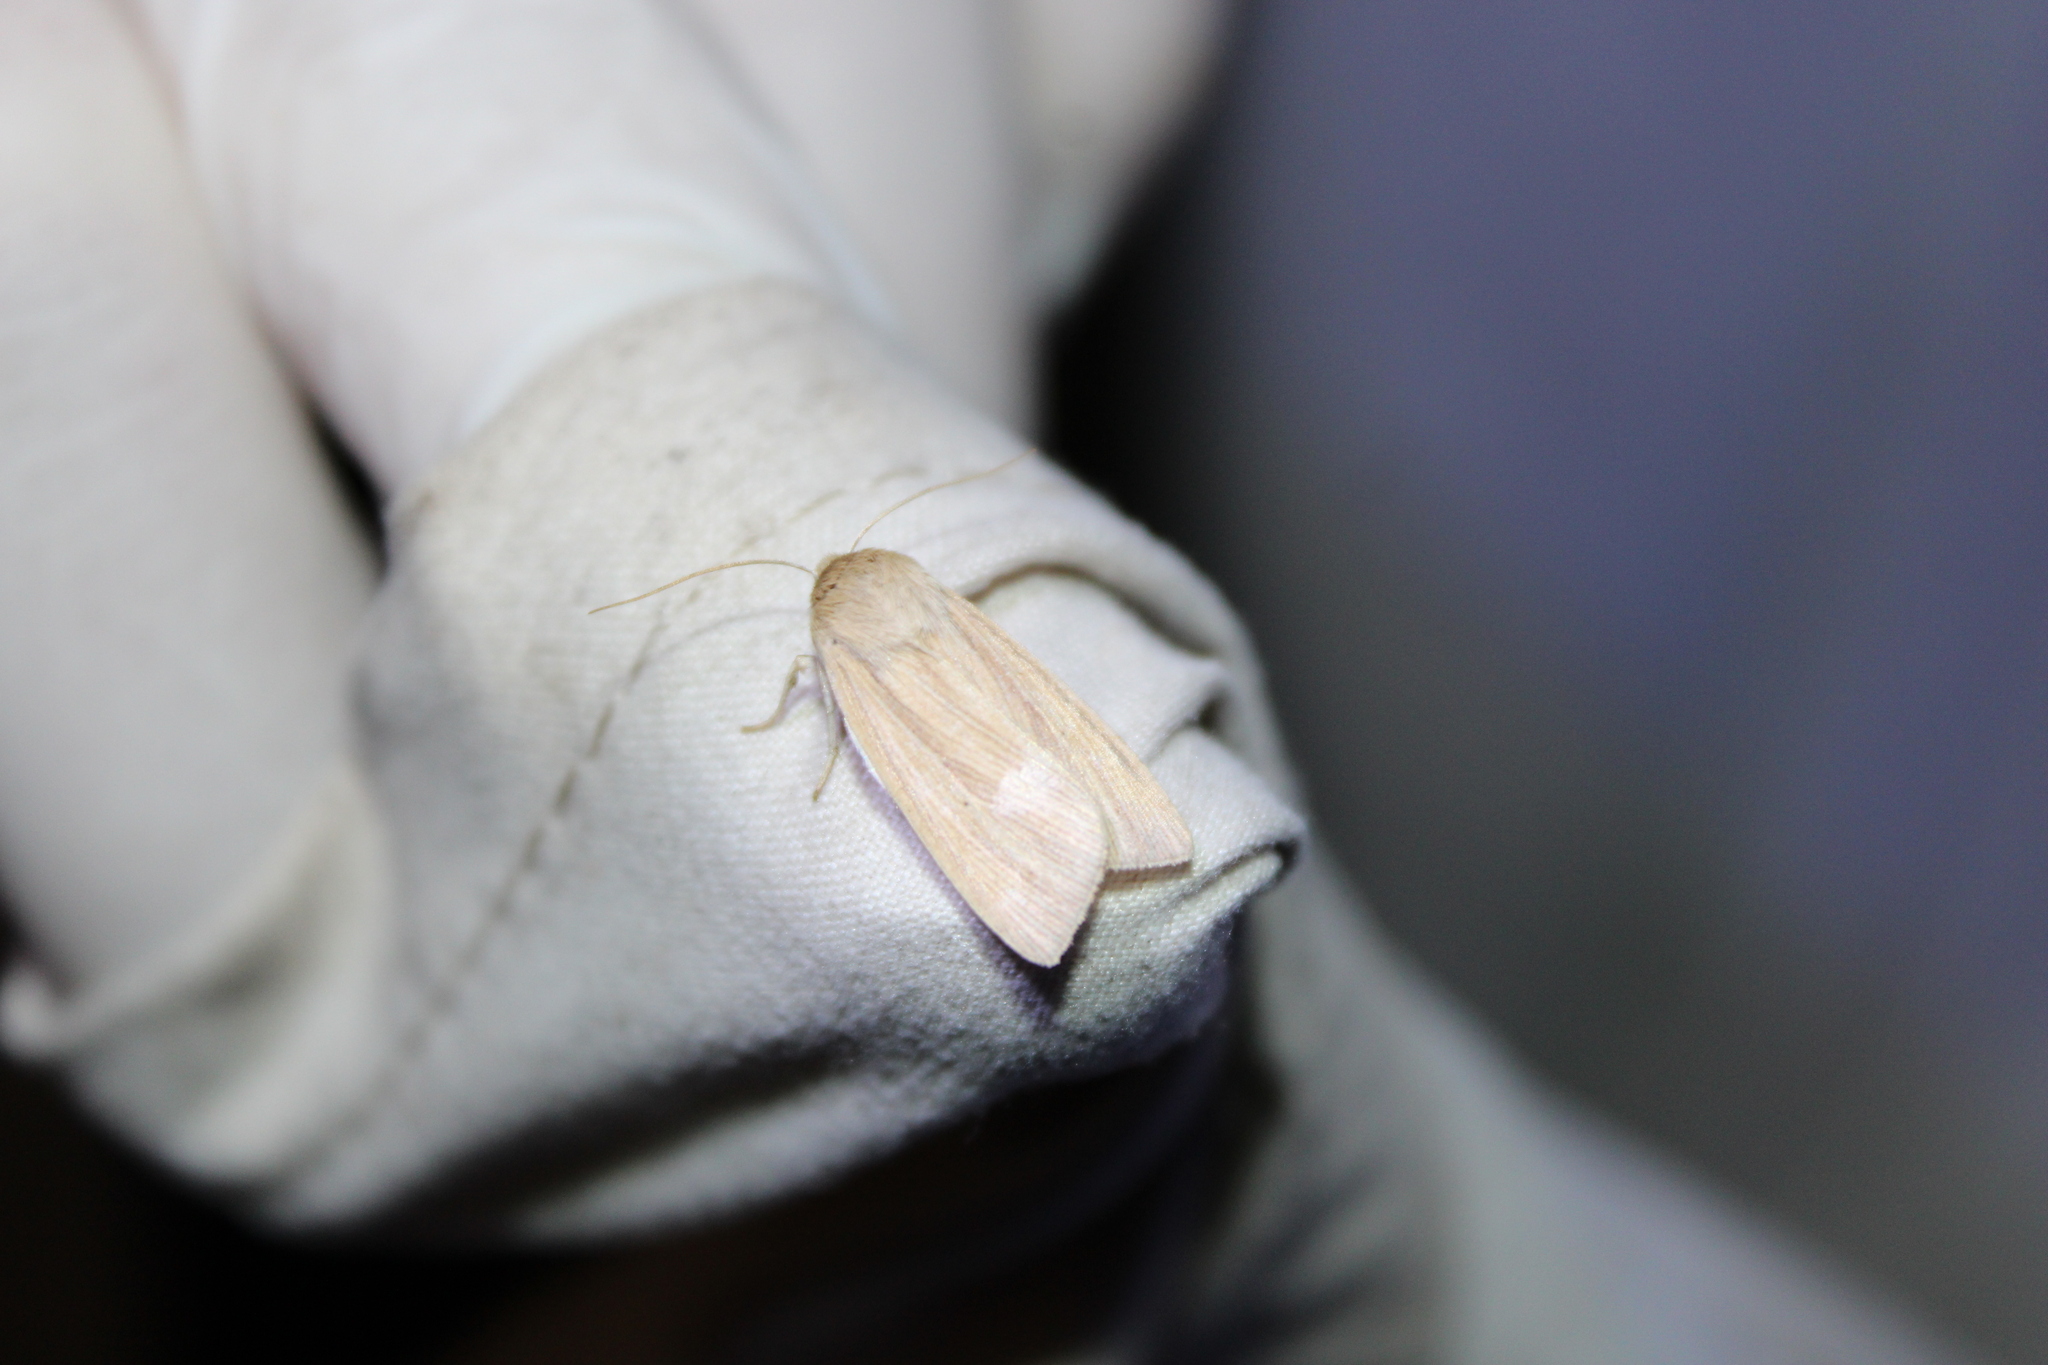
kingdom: Animalia
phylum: Arthropoda
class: Insecta
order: Lepidoptera
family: Noctuidae
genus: Mythimna
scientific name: Mythimna oxygala
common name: Lesser wainscot
